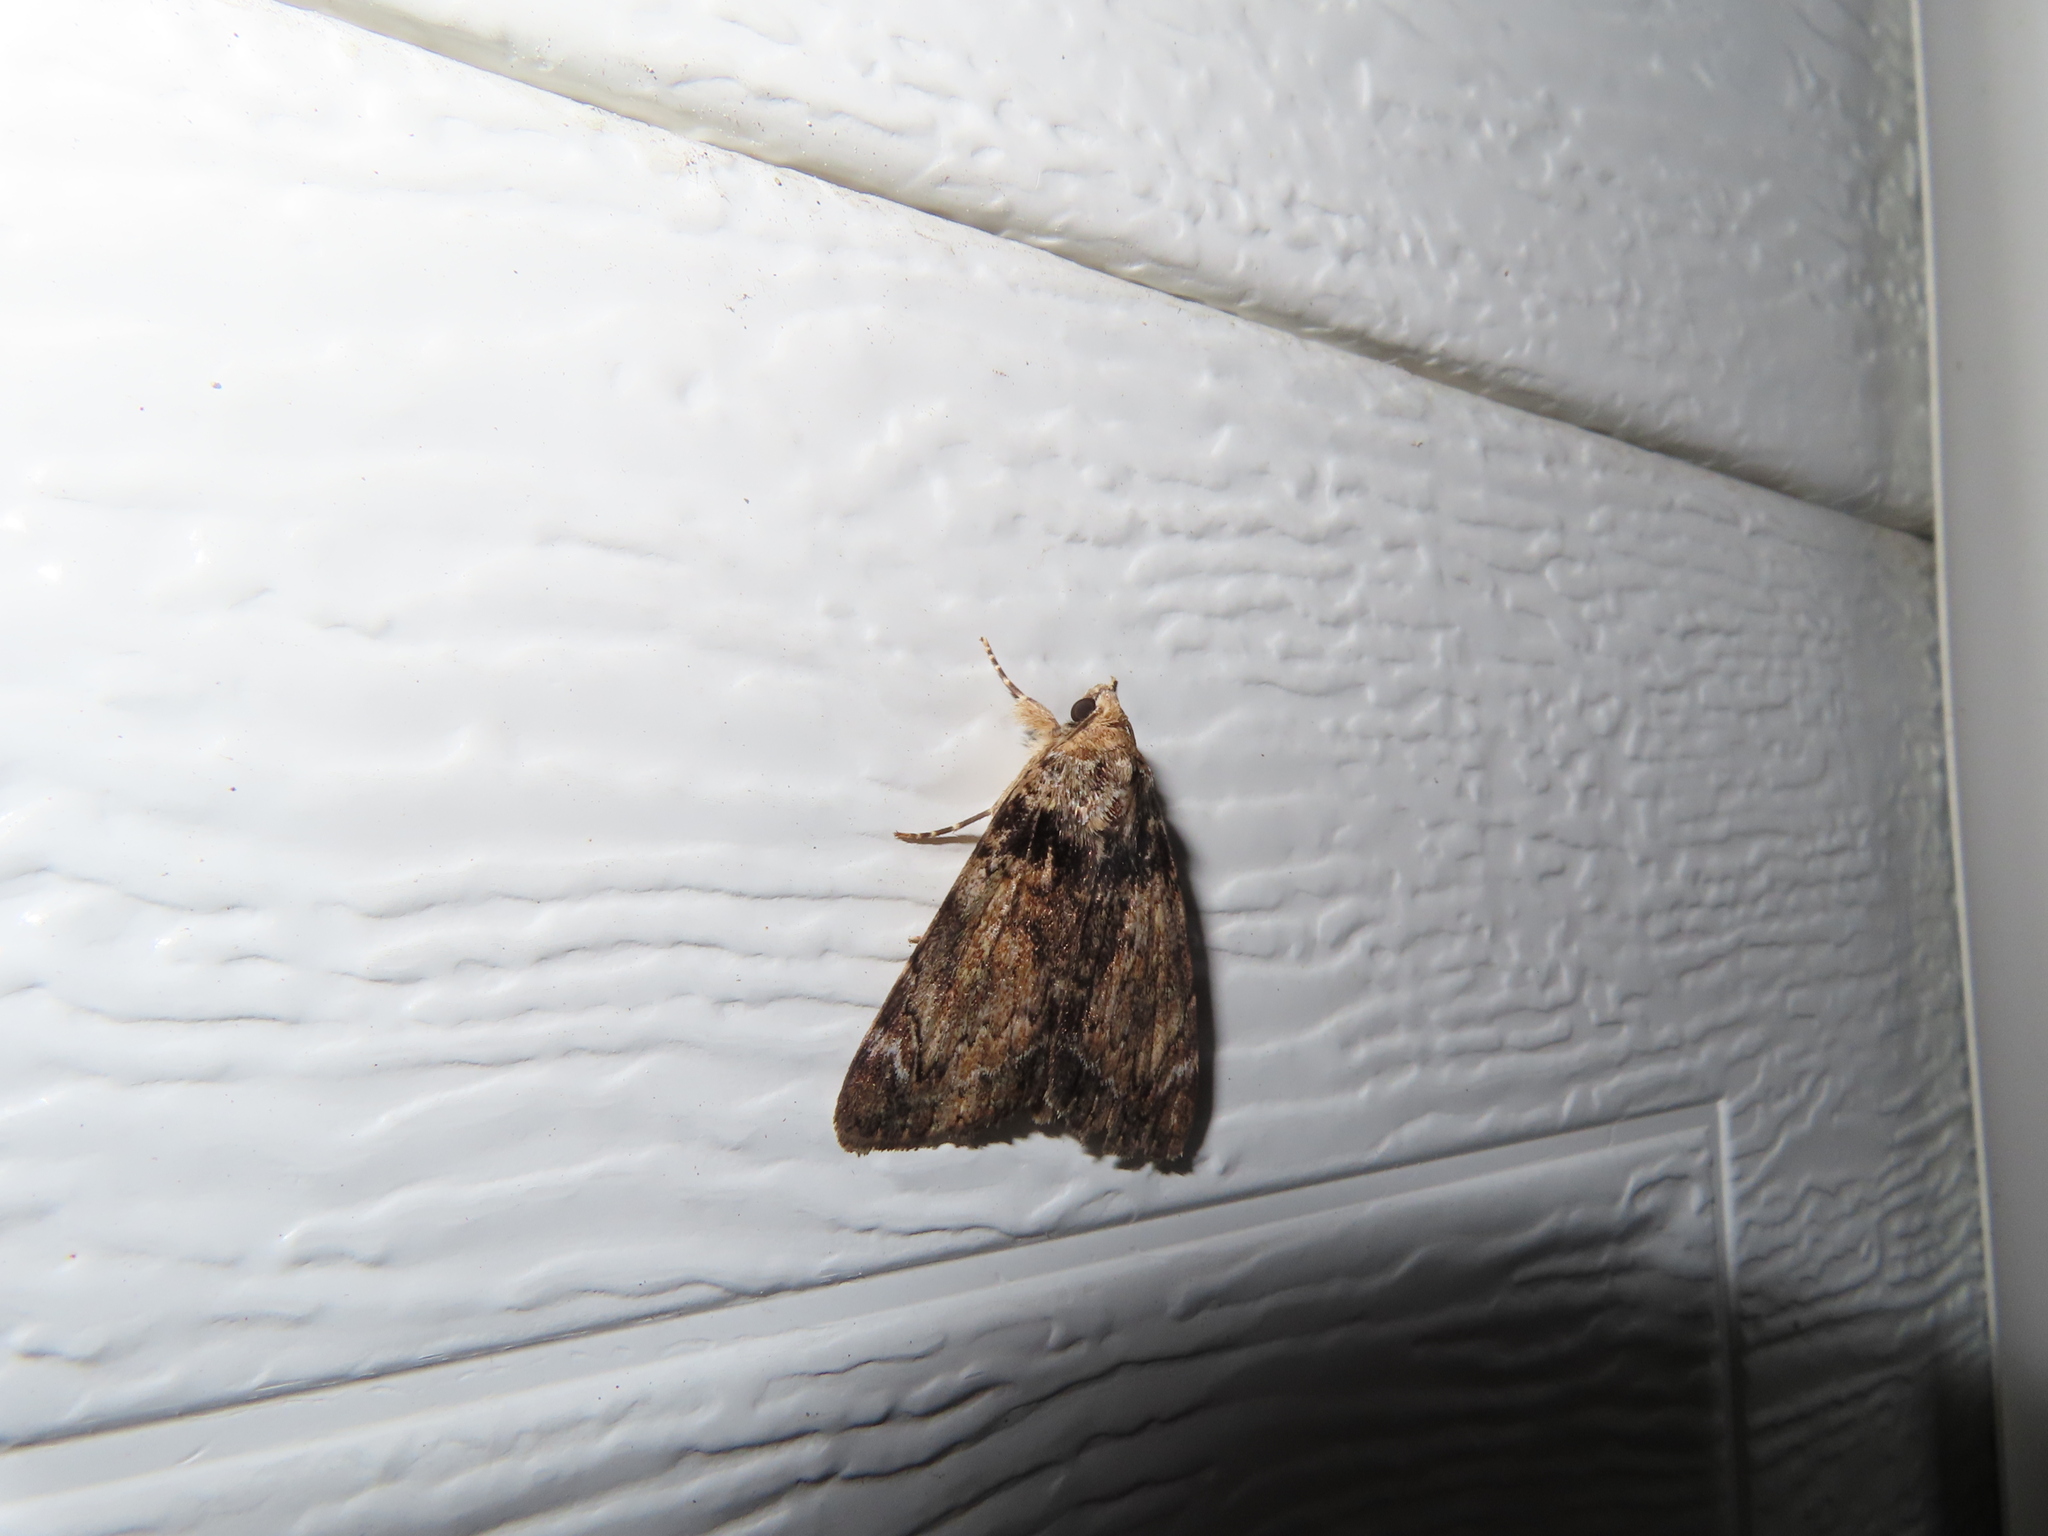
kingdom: Animalia
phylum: Arthropoda
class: Insecta
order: Lepidoptera
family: Erebidae
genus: Catocala
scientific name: Catocala minuta
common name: Little underwing
